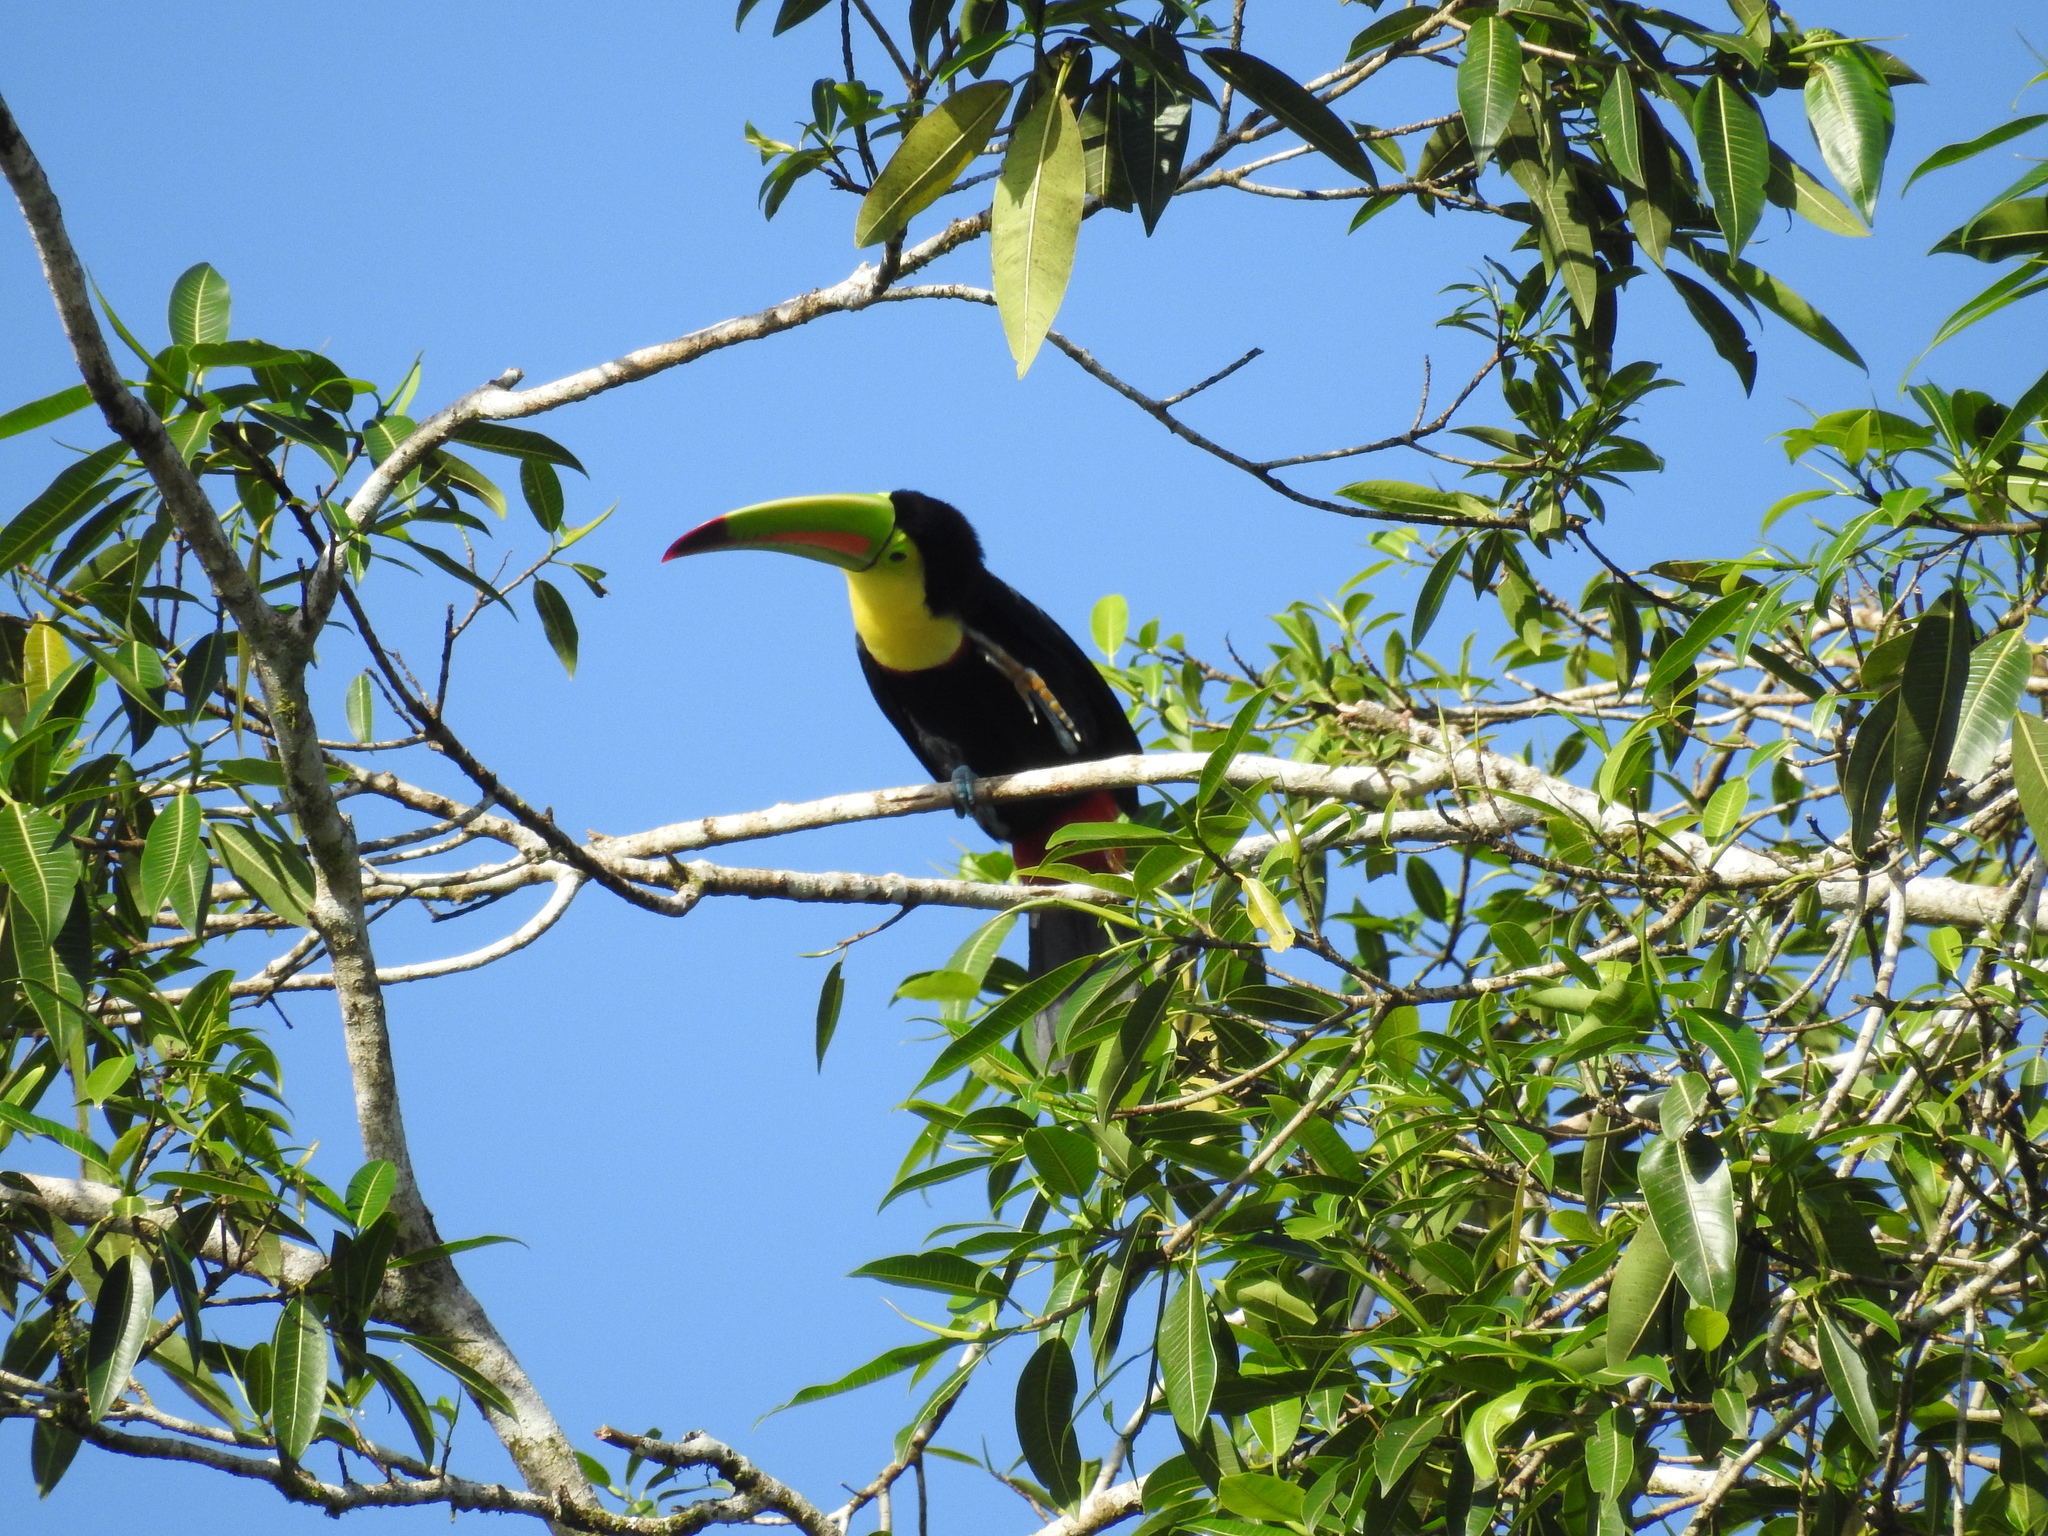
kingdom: Animalia
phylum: Chordata
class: Aves
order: Piciformes
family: Ramphastidae
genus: Ramphastos
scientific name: Ramphastos sulfuratus
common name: Keel-billed toucan
